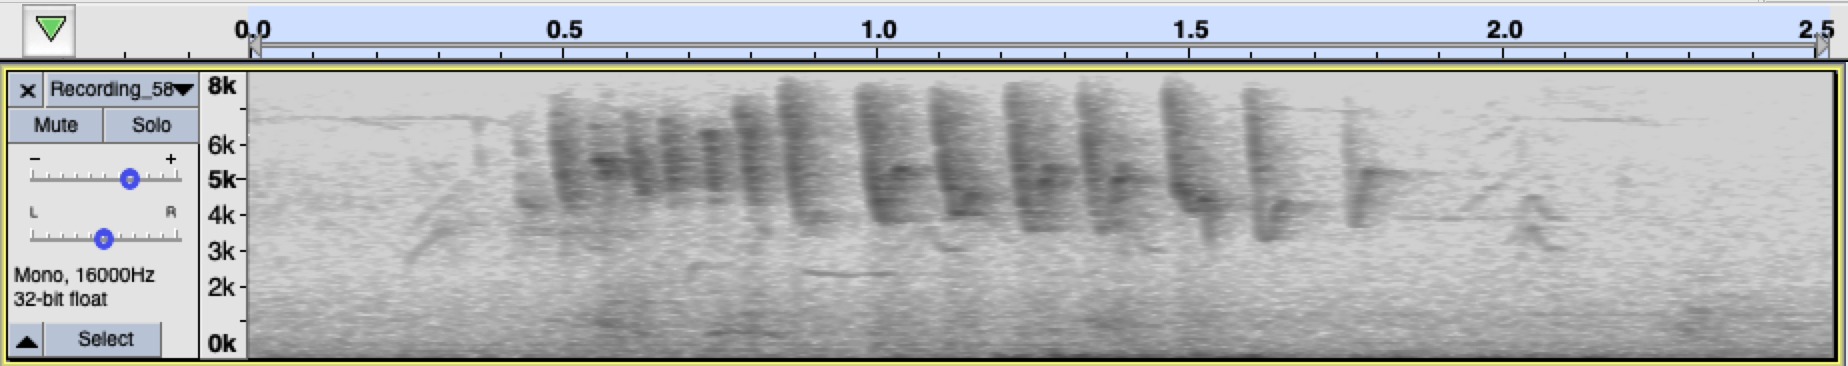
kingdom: Animalia
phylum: Chordata
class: Aves
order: Passeriformes
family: Parulidae
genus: Leiothlypis
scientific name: Leiothlypis celata
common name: Orange-crowned warbler
